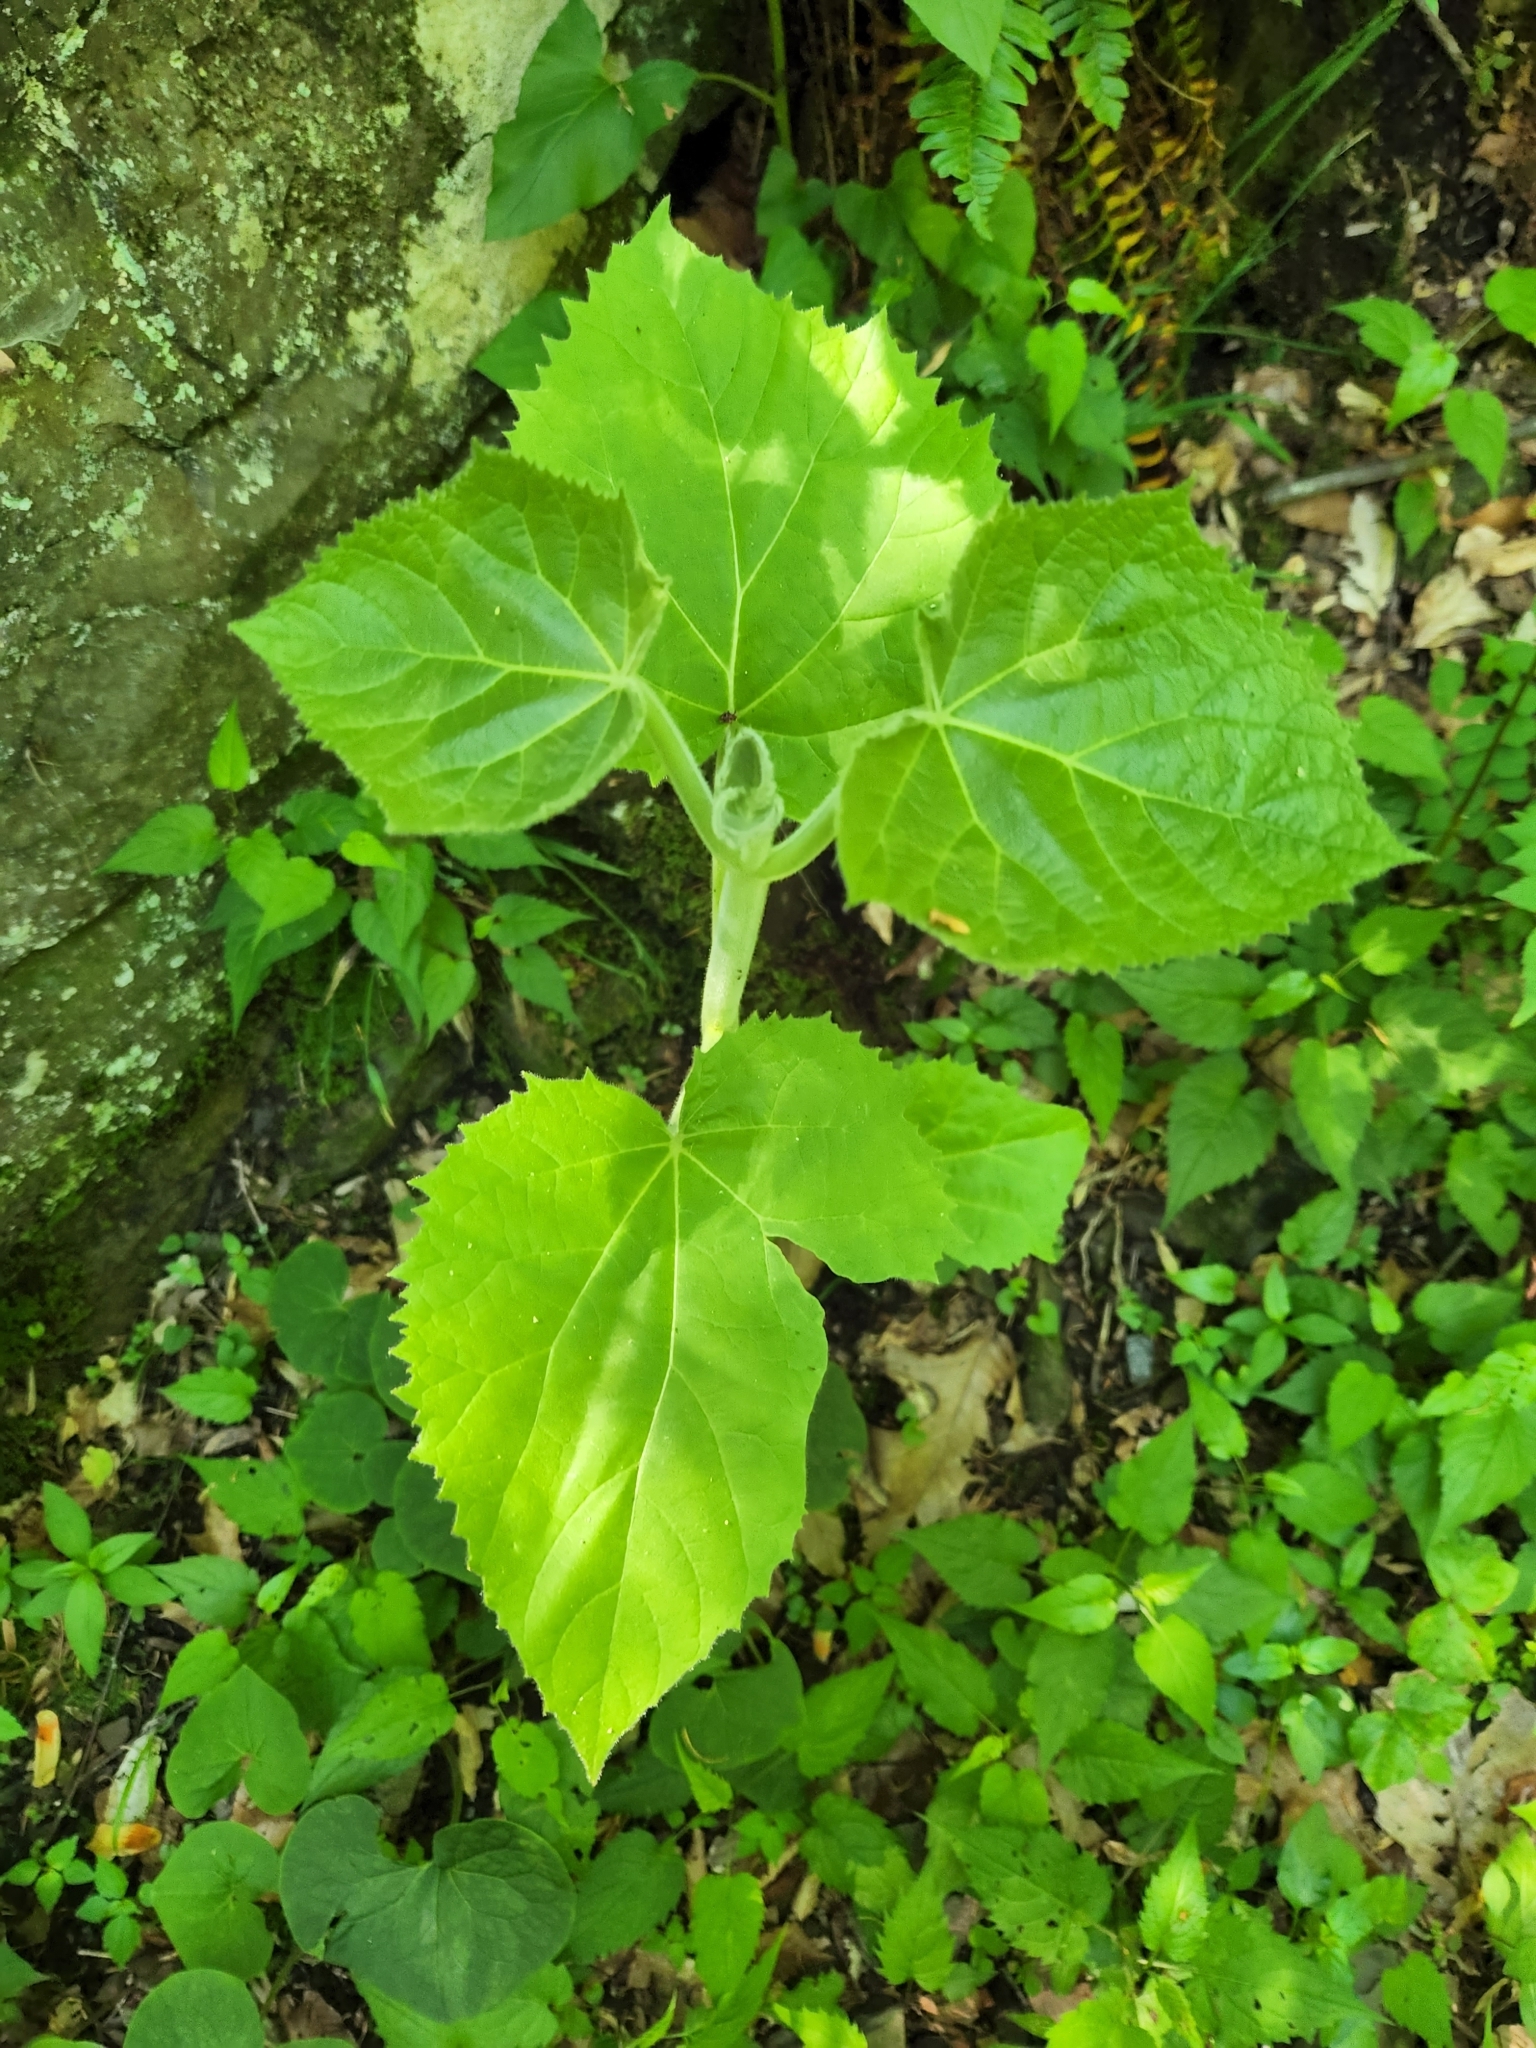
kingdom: Plantae
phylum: Tracheophyta
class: Magnoliopsida
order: Lamiales
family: Paulowniaceae
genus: Paulownia
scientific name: Paulownia tomentosa
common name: Foxglove-tree
